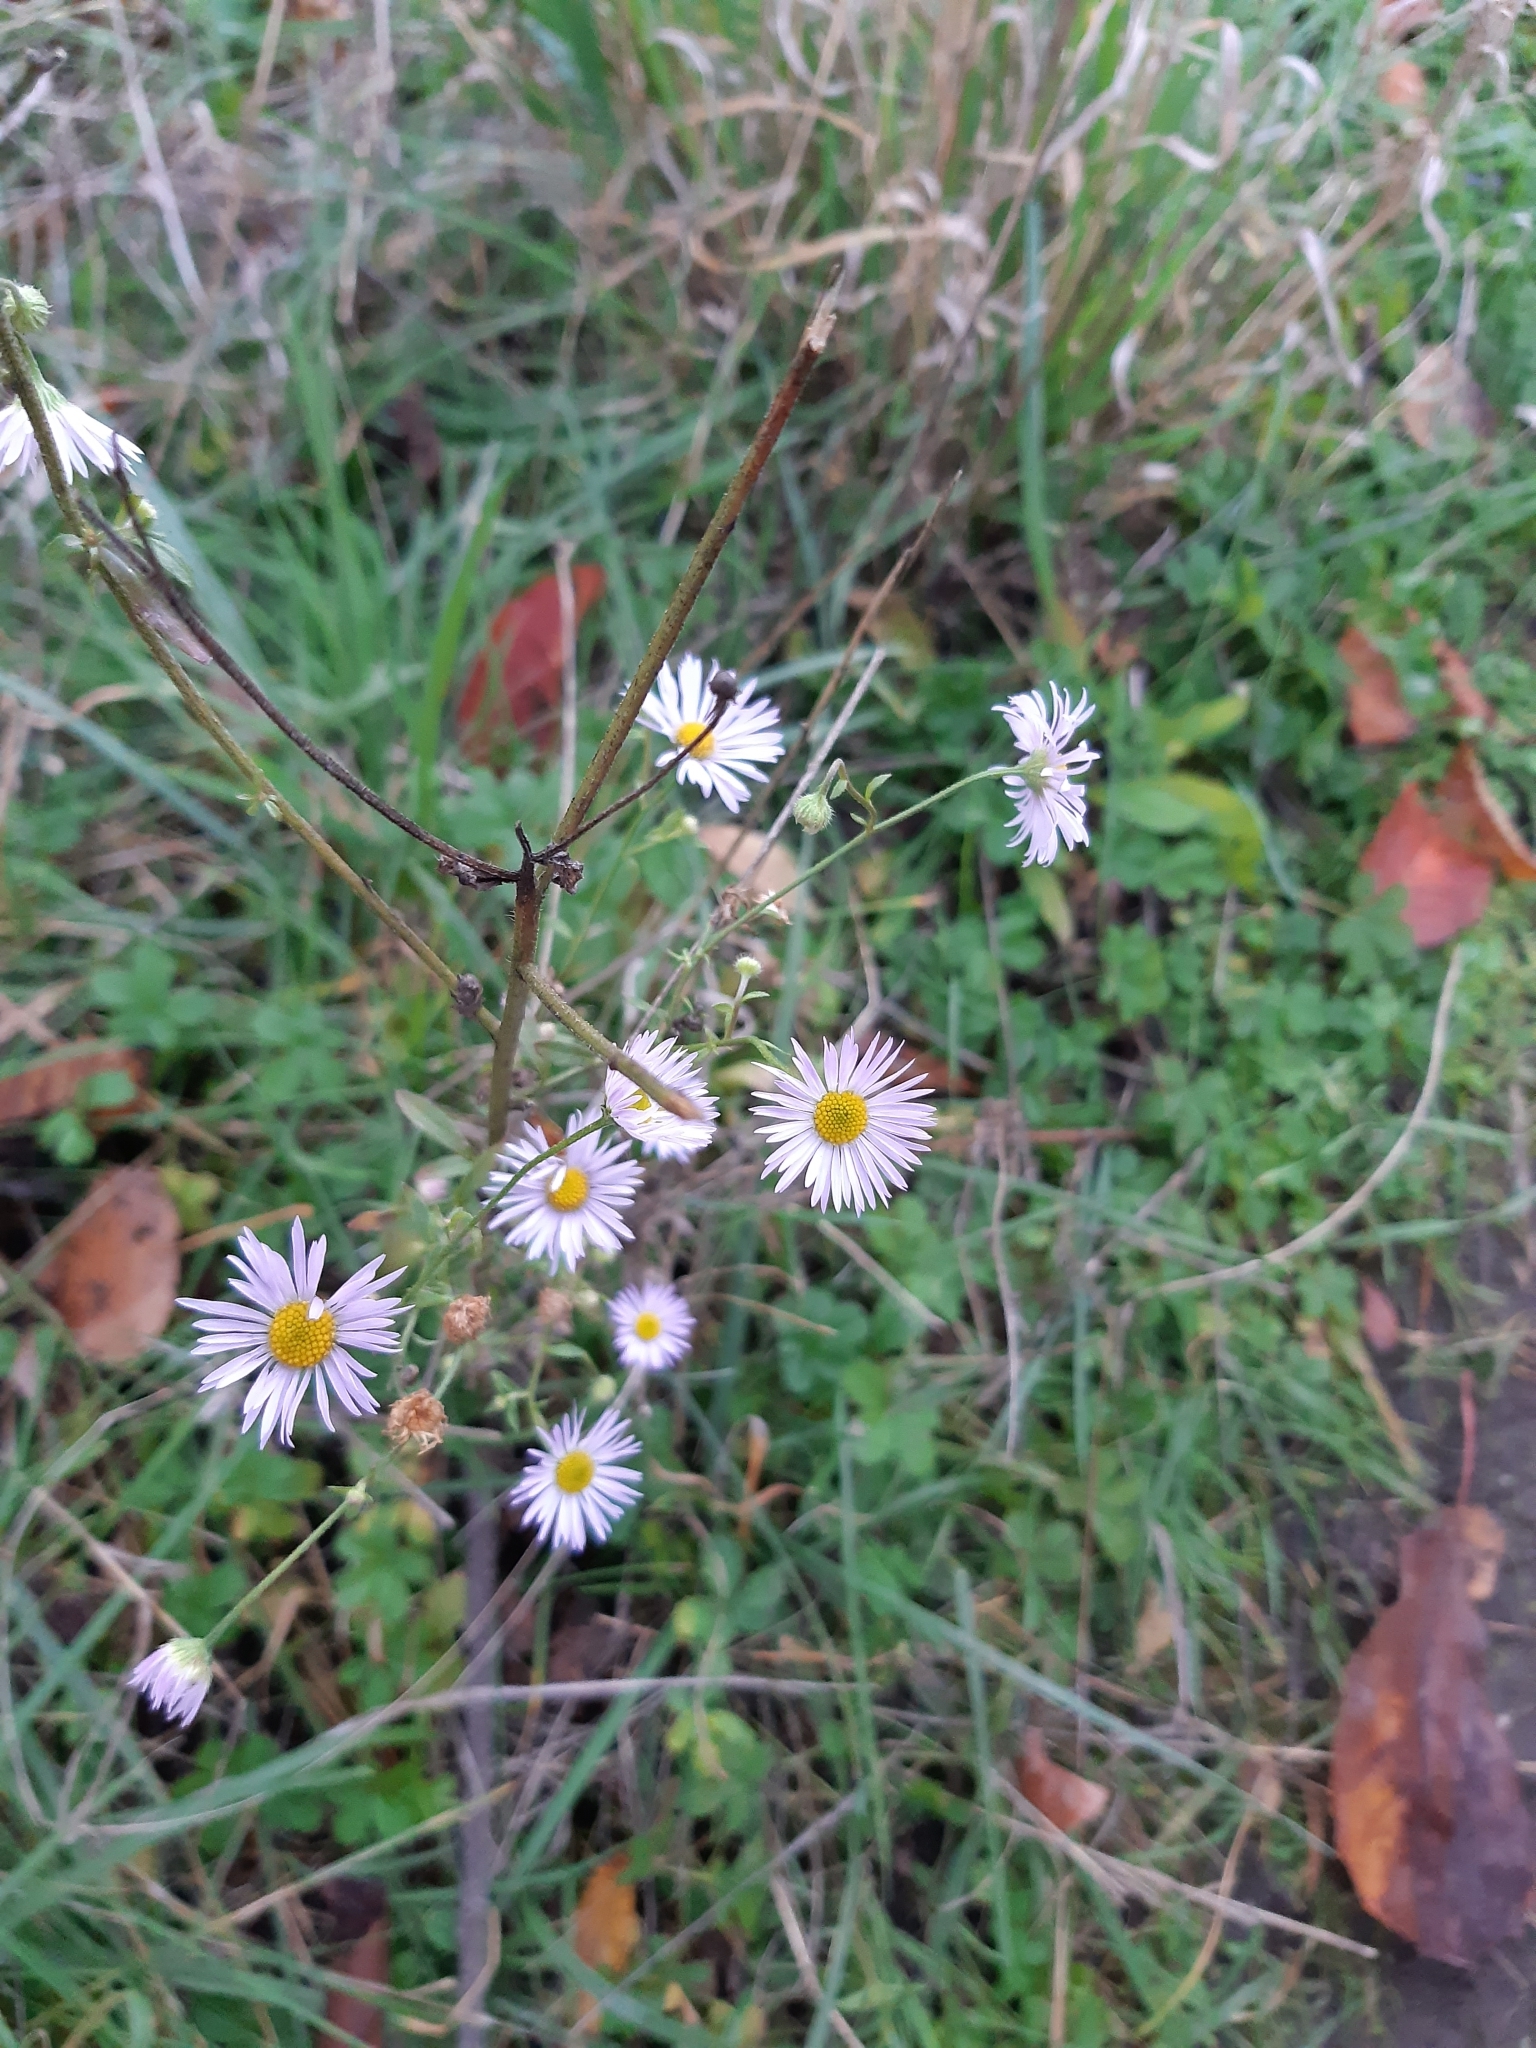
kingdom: Plantae
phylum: Tracheophyta
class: Magnoliopsida
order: Asterales
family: Asteraceae
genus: Erigeron
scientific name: Erigeron annuus
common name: Tall fleabane
